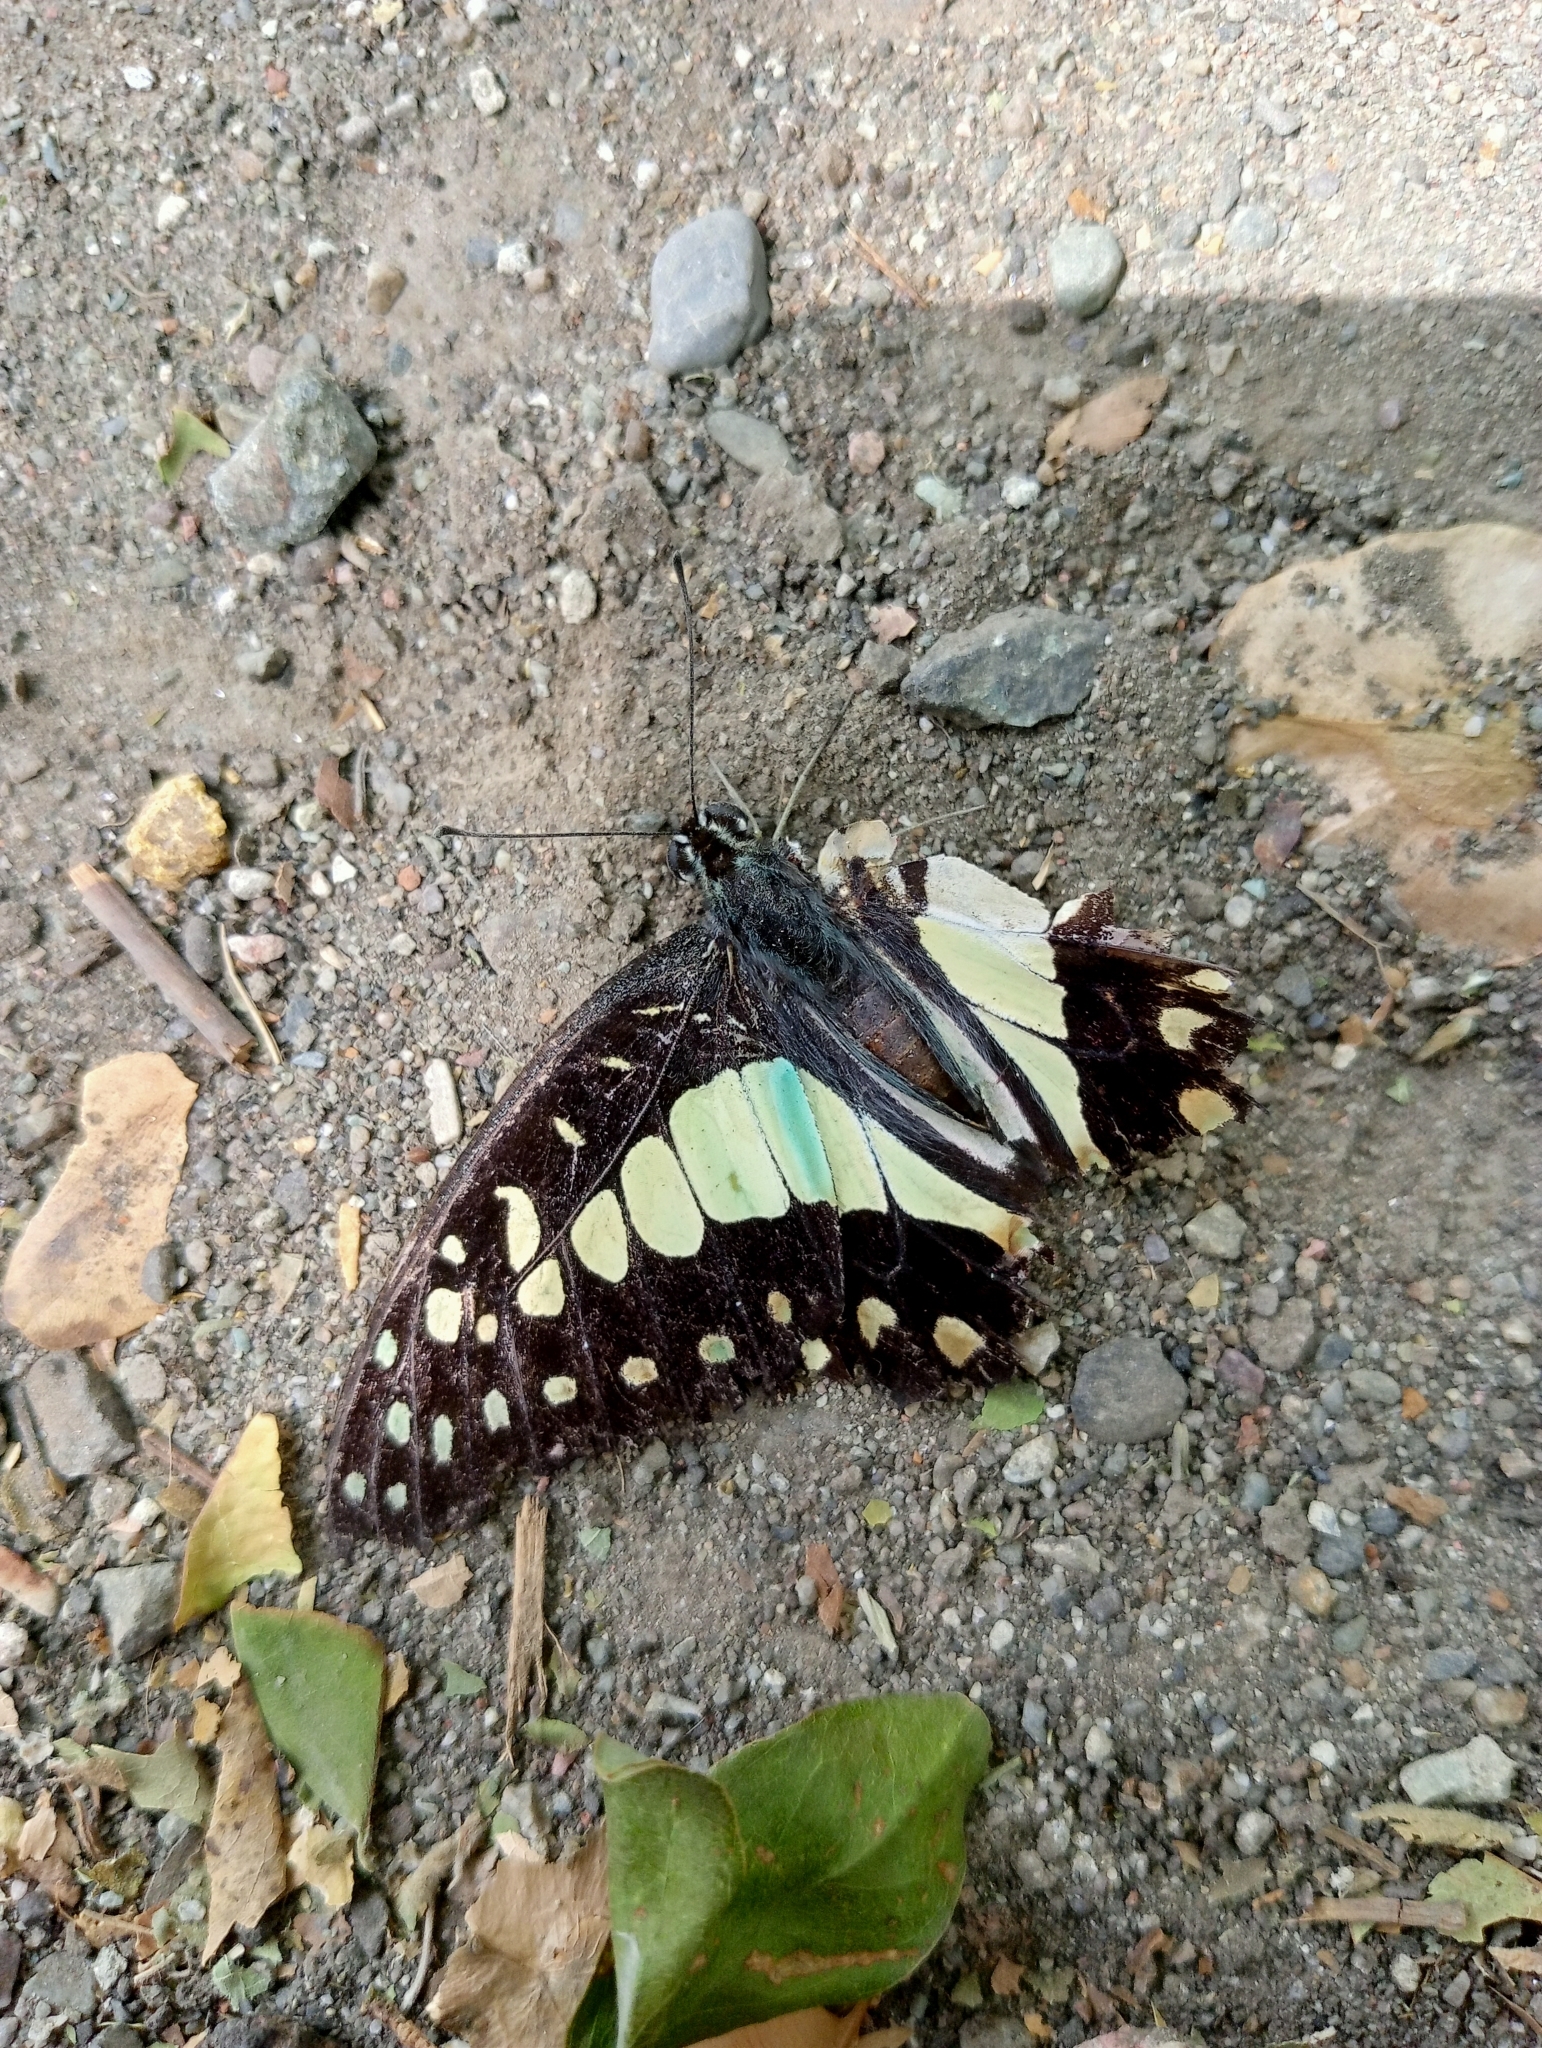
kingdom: Animalia
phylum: Arthropoda
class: Insecta
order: Lepidoptera
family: Papilionidae
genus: Graphium
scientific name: Graphium doson
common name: Common jay
